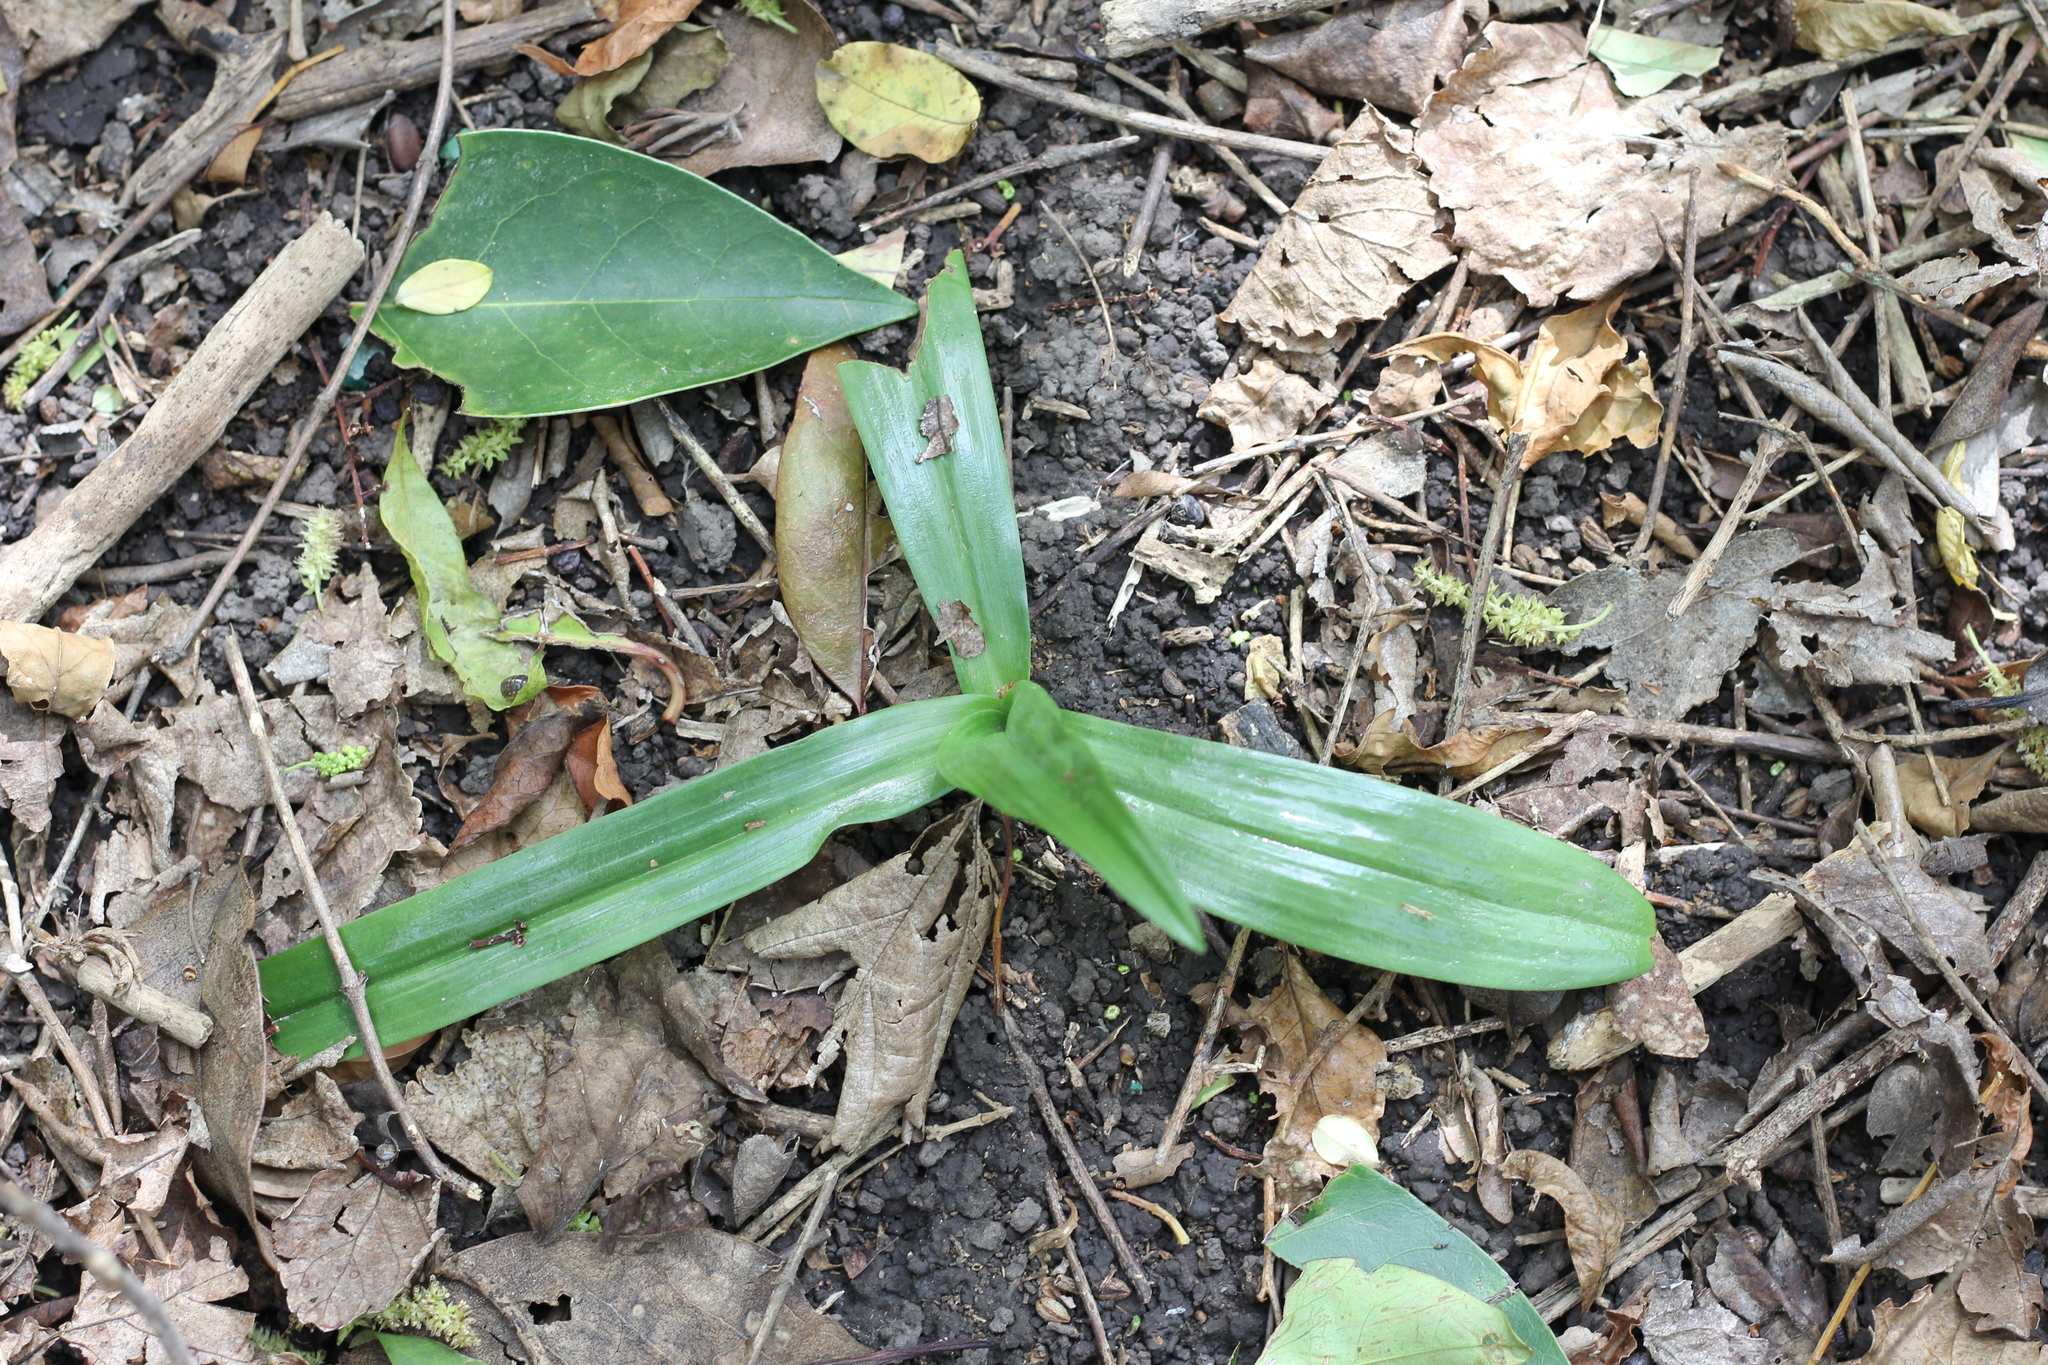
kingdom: Plantae
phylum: Tracheophyta
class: Liliopsida
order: Asparagales
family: Orchidaceae
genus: Chloraea
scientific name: Chloraea membranacea
